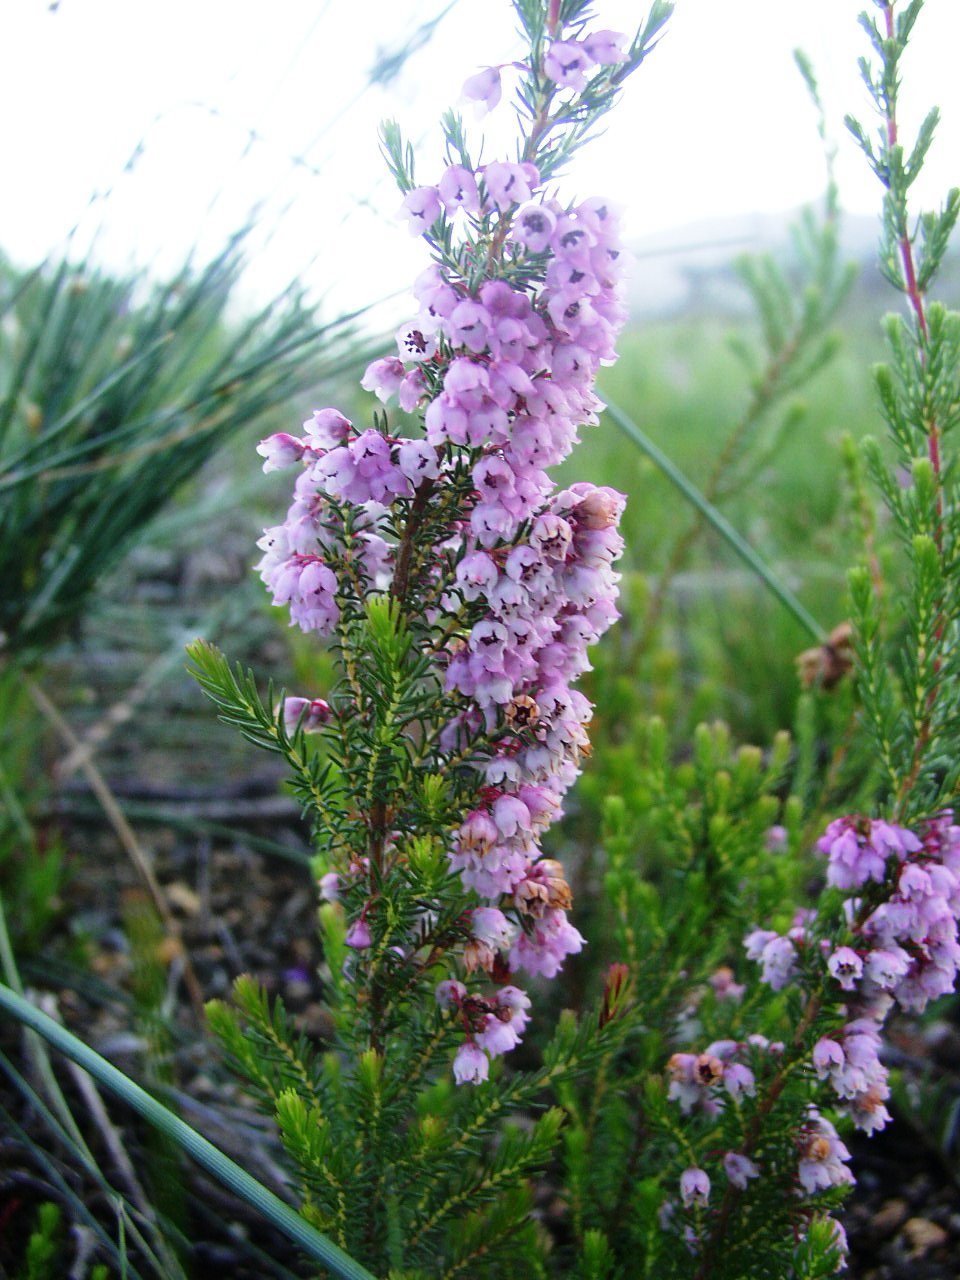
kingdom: Plantae
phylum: Tracheophyta
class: Magnoliopsida
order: Ericales
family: Ericaceae
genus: Erica
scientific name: Erica mauritanica
